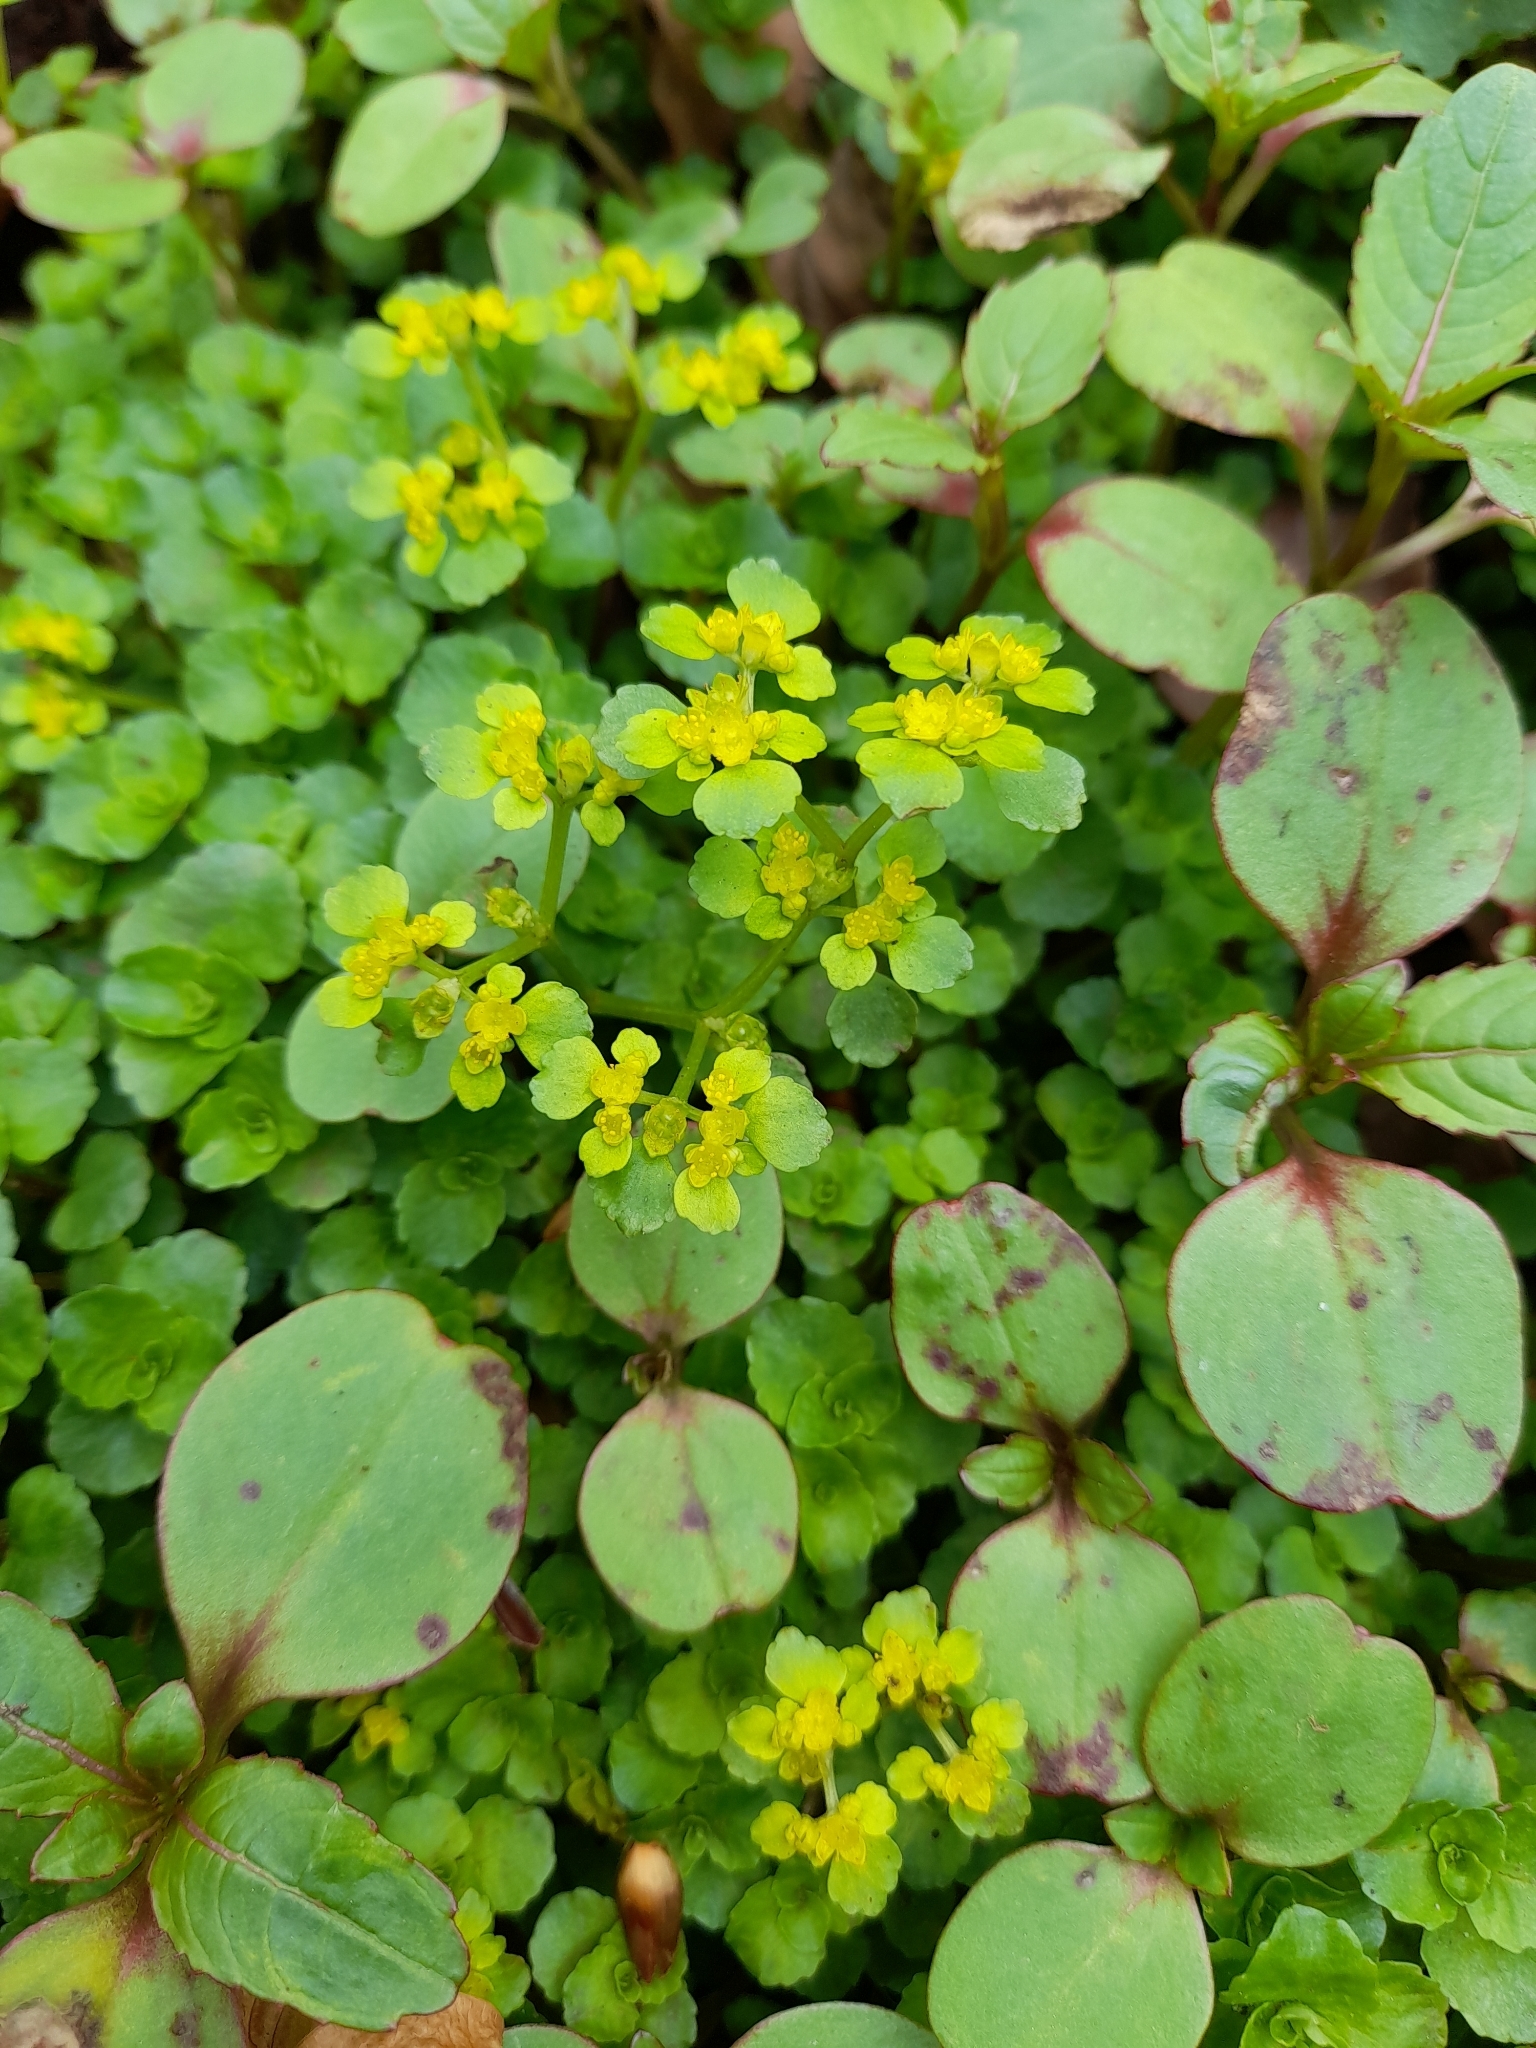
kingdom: Plantae
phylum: Tracheophyta
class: Magnoliopsida
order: Saxifragales
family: Saxifragaceae
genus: Chrysosplenium
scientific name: Chrysosplenium oppositifolium
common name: Opposite-leaved golden-saxifrage
